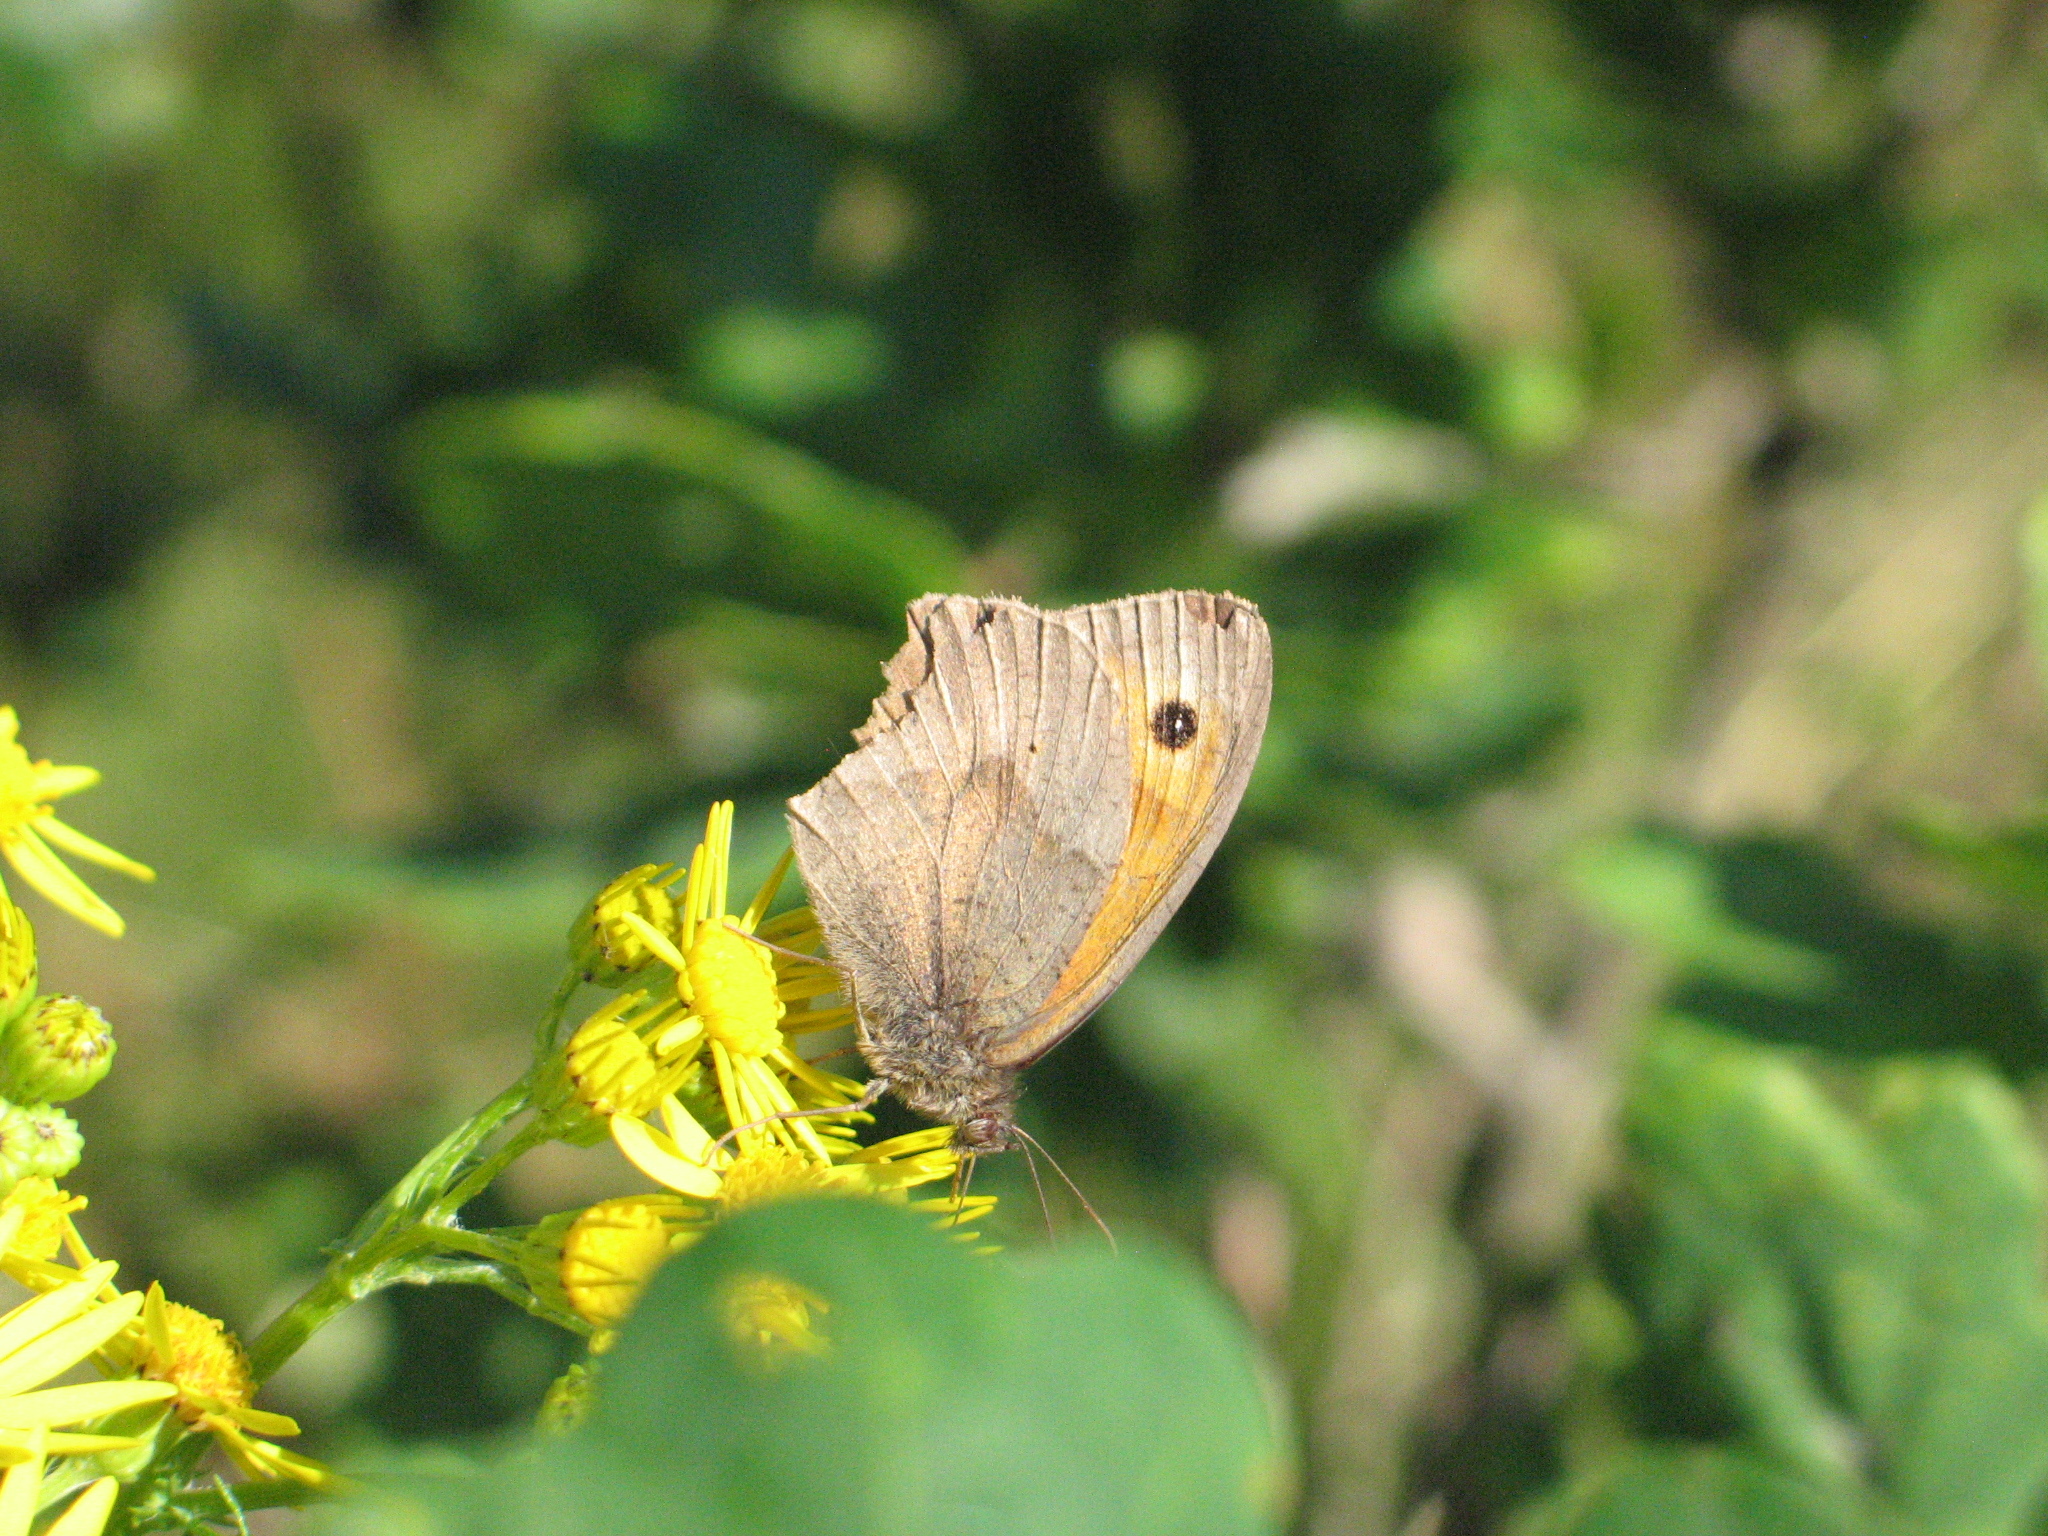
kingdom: Animalia
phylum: Arthropoda
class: Insecta
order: Lepidoptera
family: Nymphalidae
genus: Maniola
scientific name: Maniola jurtina
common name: Meadow brown
